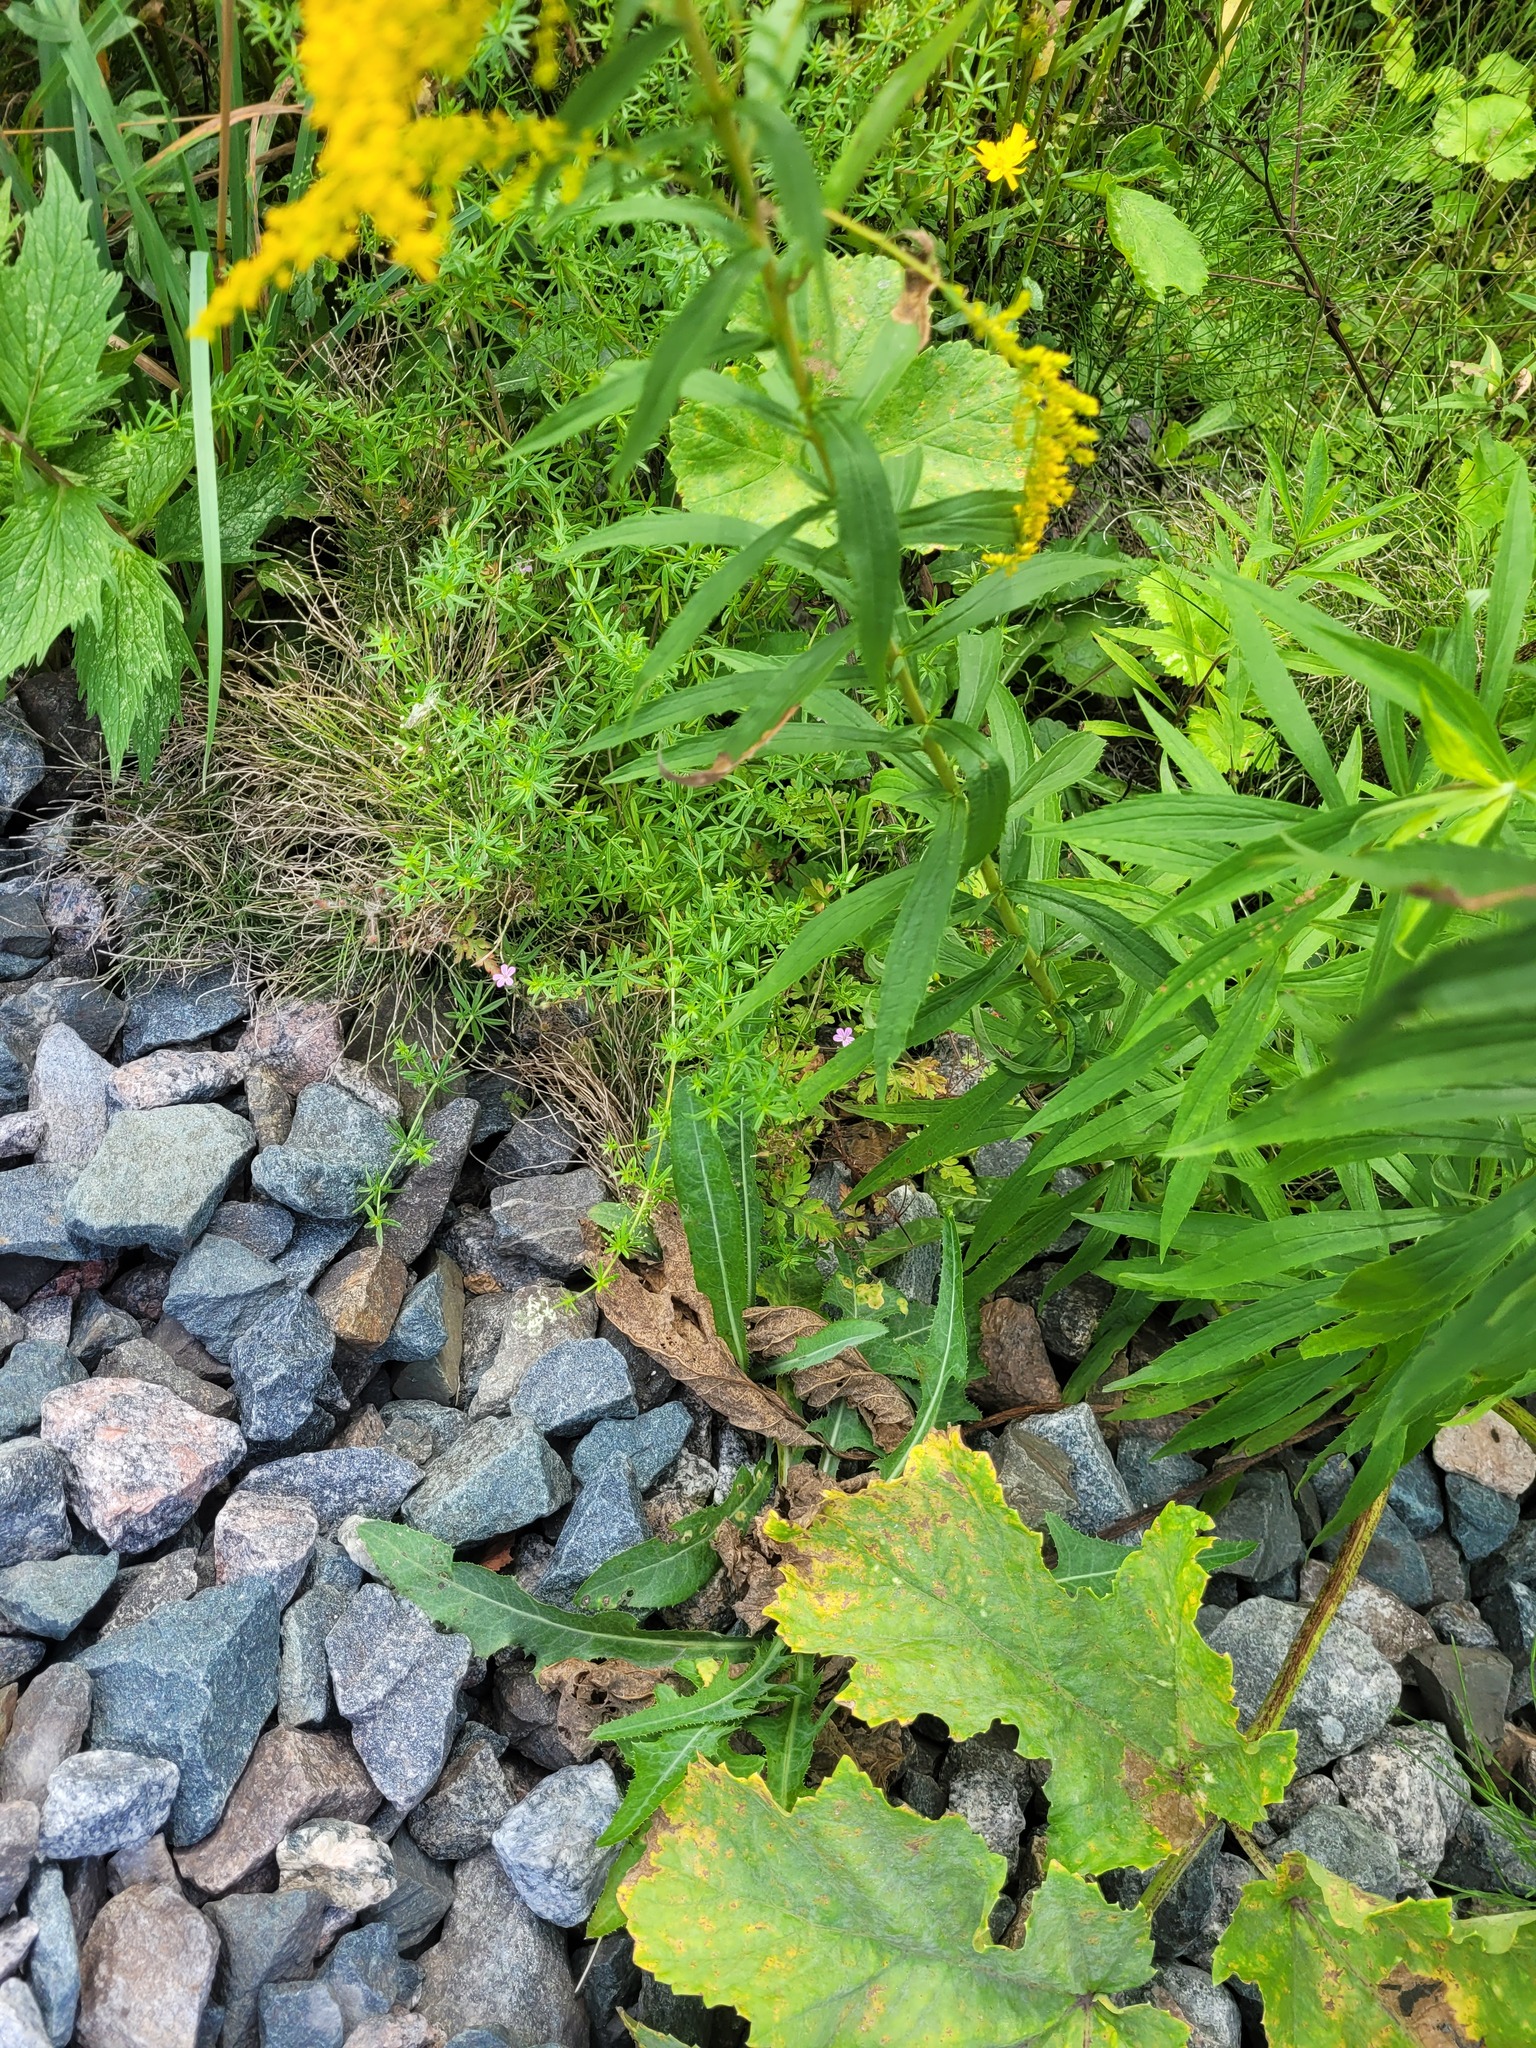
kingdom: Plantae
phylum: Tracheophyta
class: Magnoliopsida
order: Gentianales
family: Rubiaceae
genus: Galium
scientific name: Galium mollugo
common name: Hedge bedstraw
